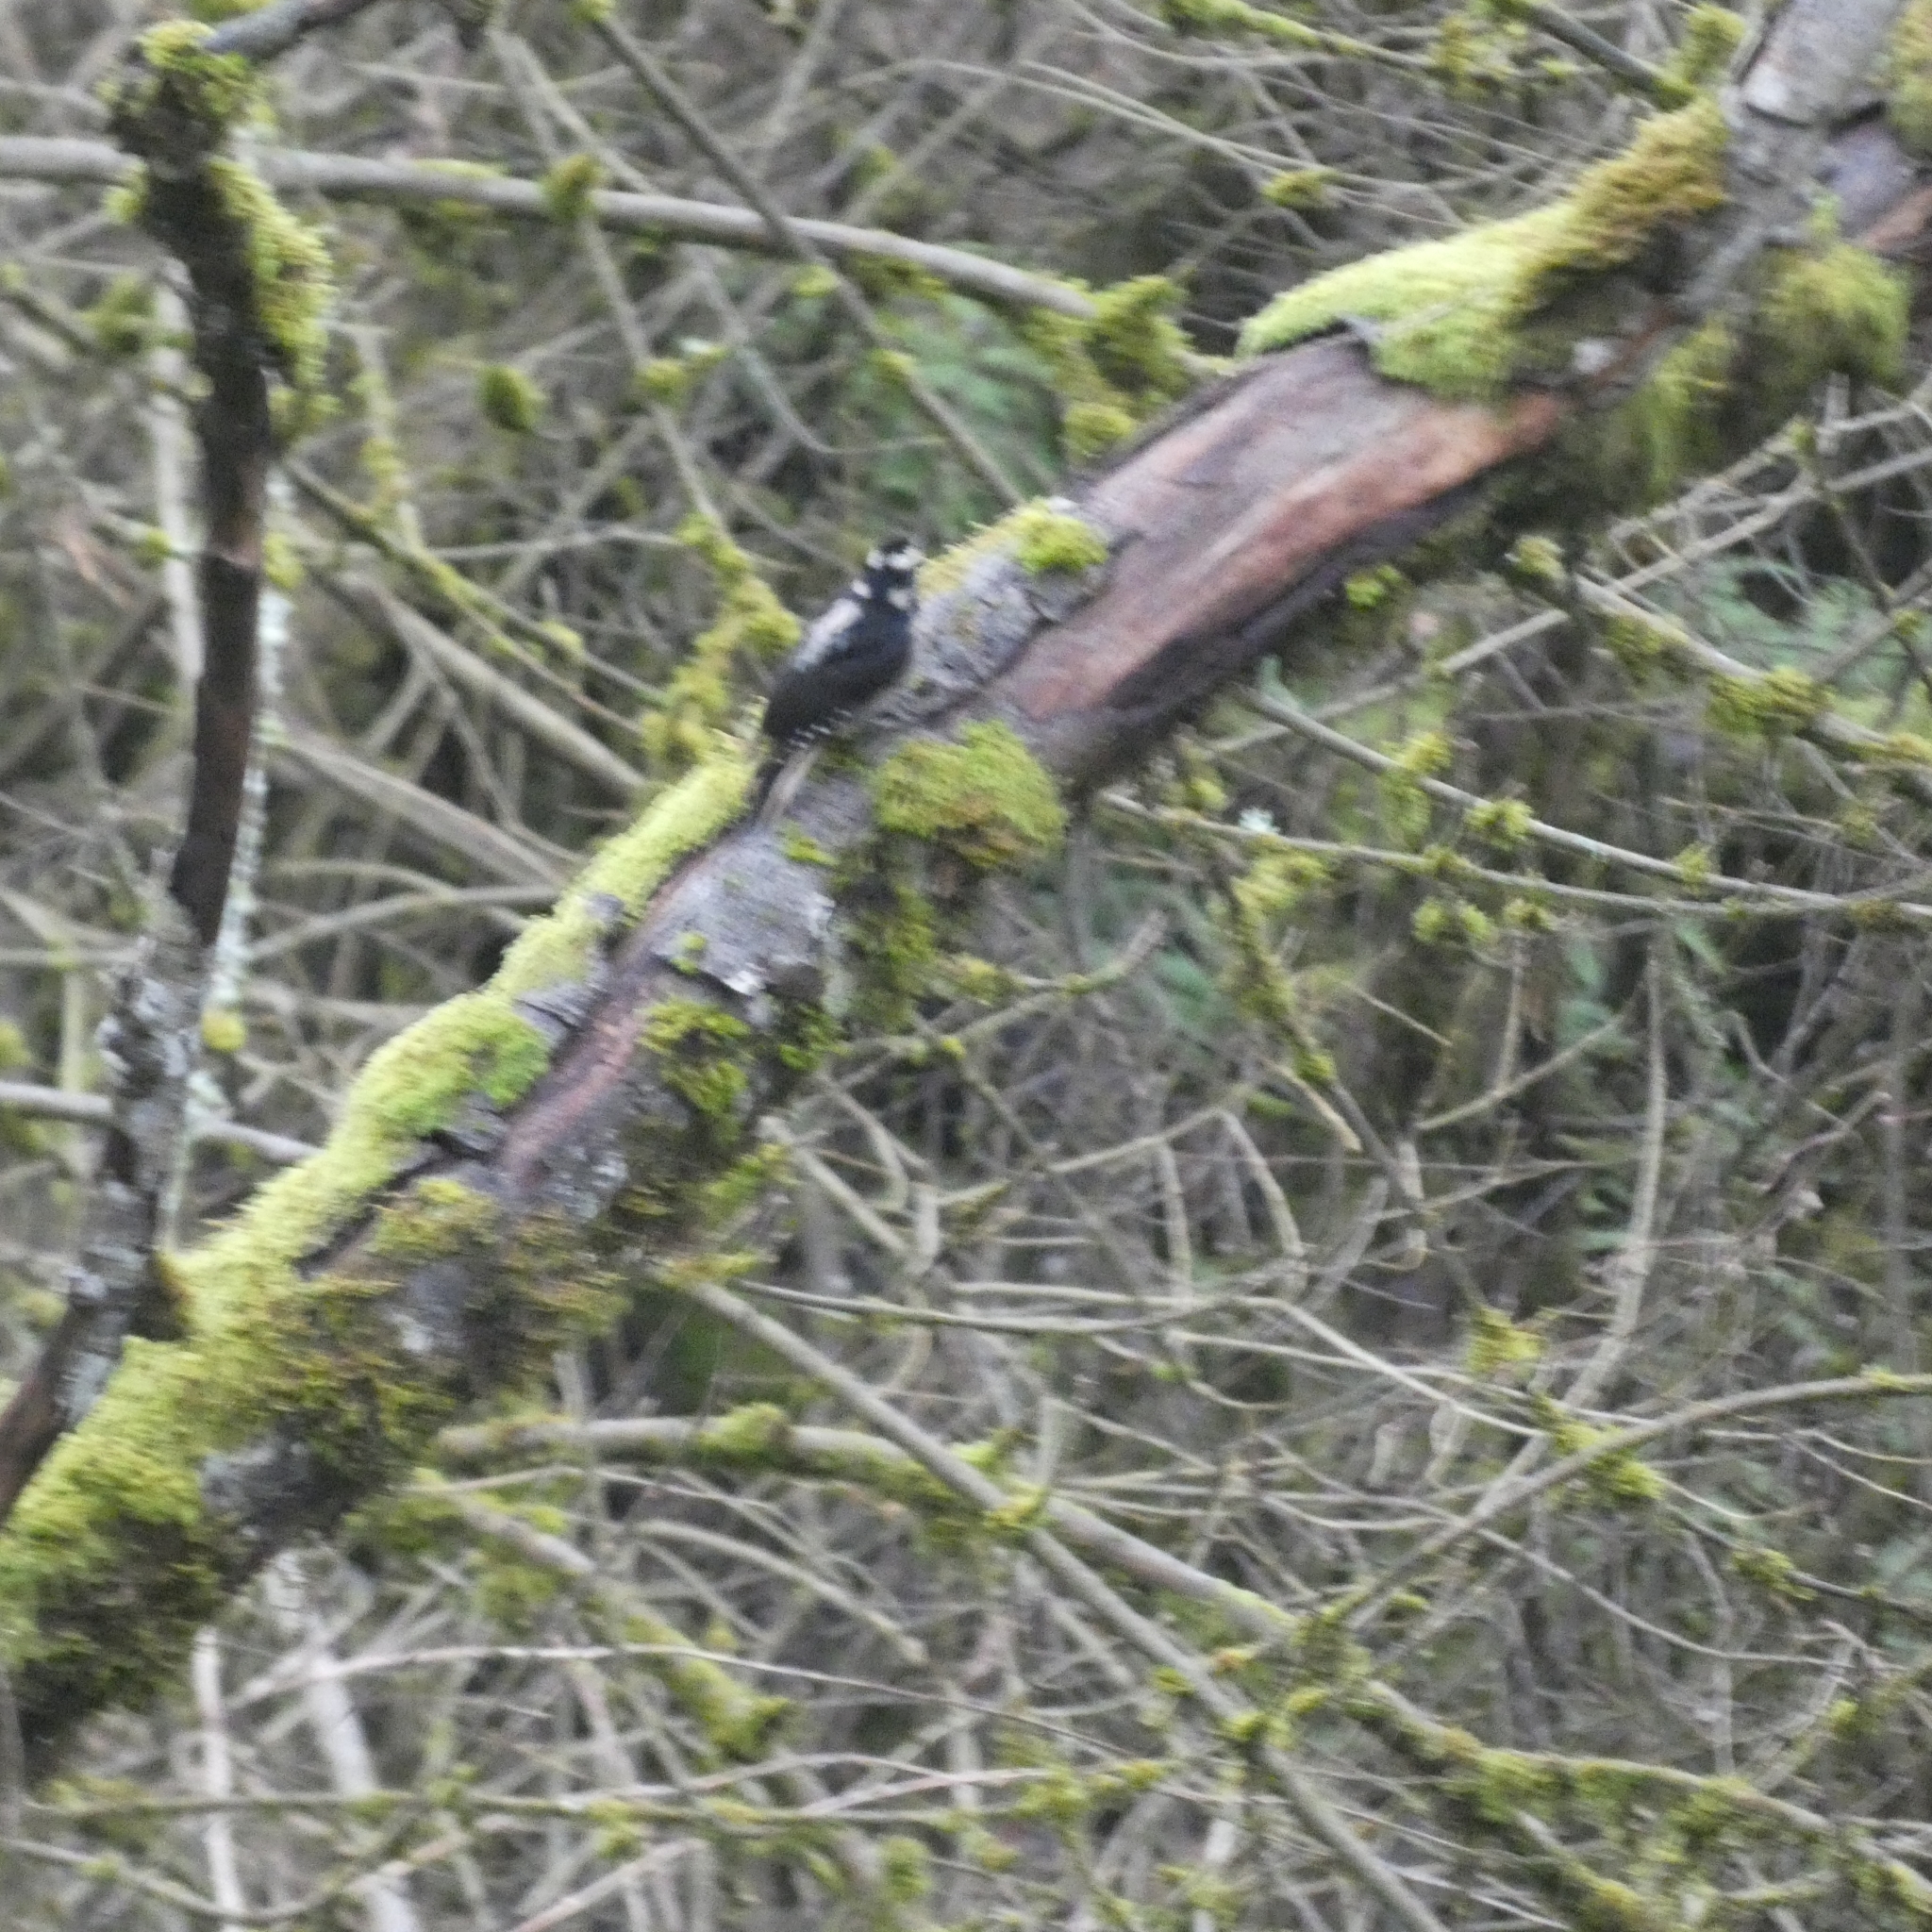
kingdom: Animalia
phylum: Chordata
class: Aves
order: Piciformes
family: Picidae
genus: Dryobates
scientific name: Dryobates pubescens
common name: Downy woodpecker
